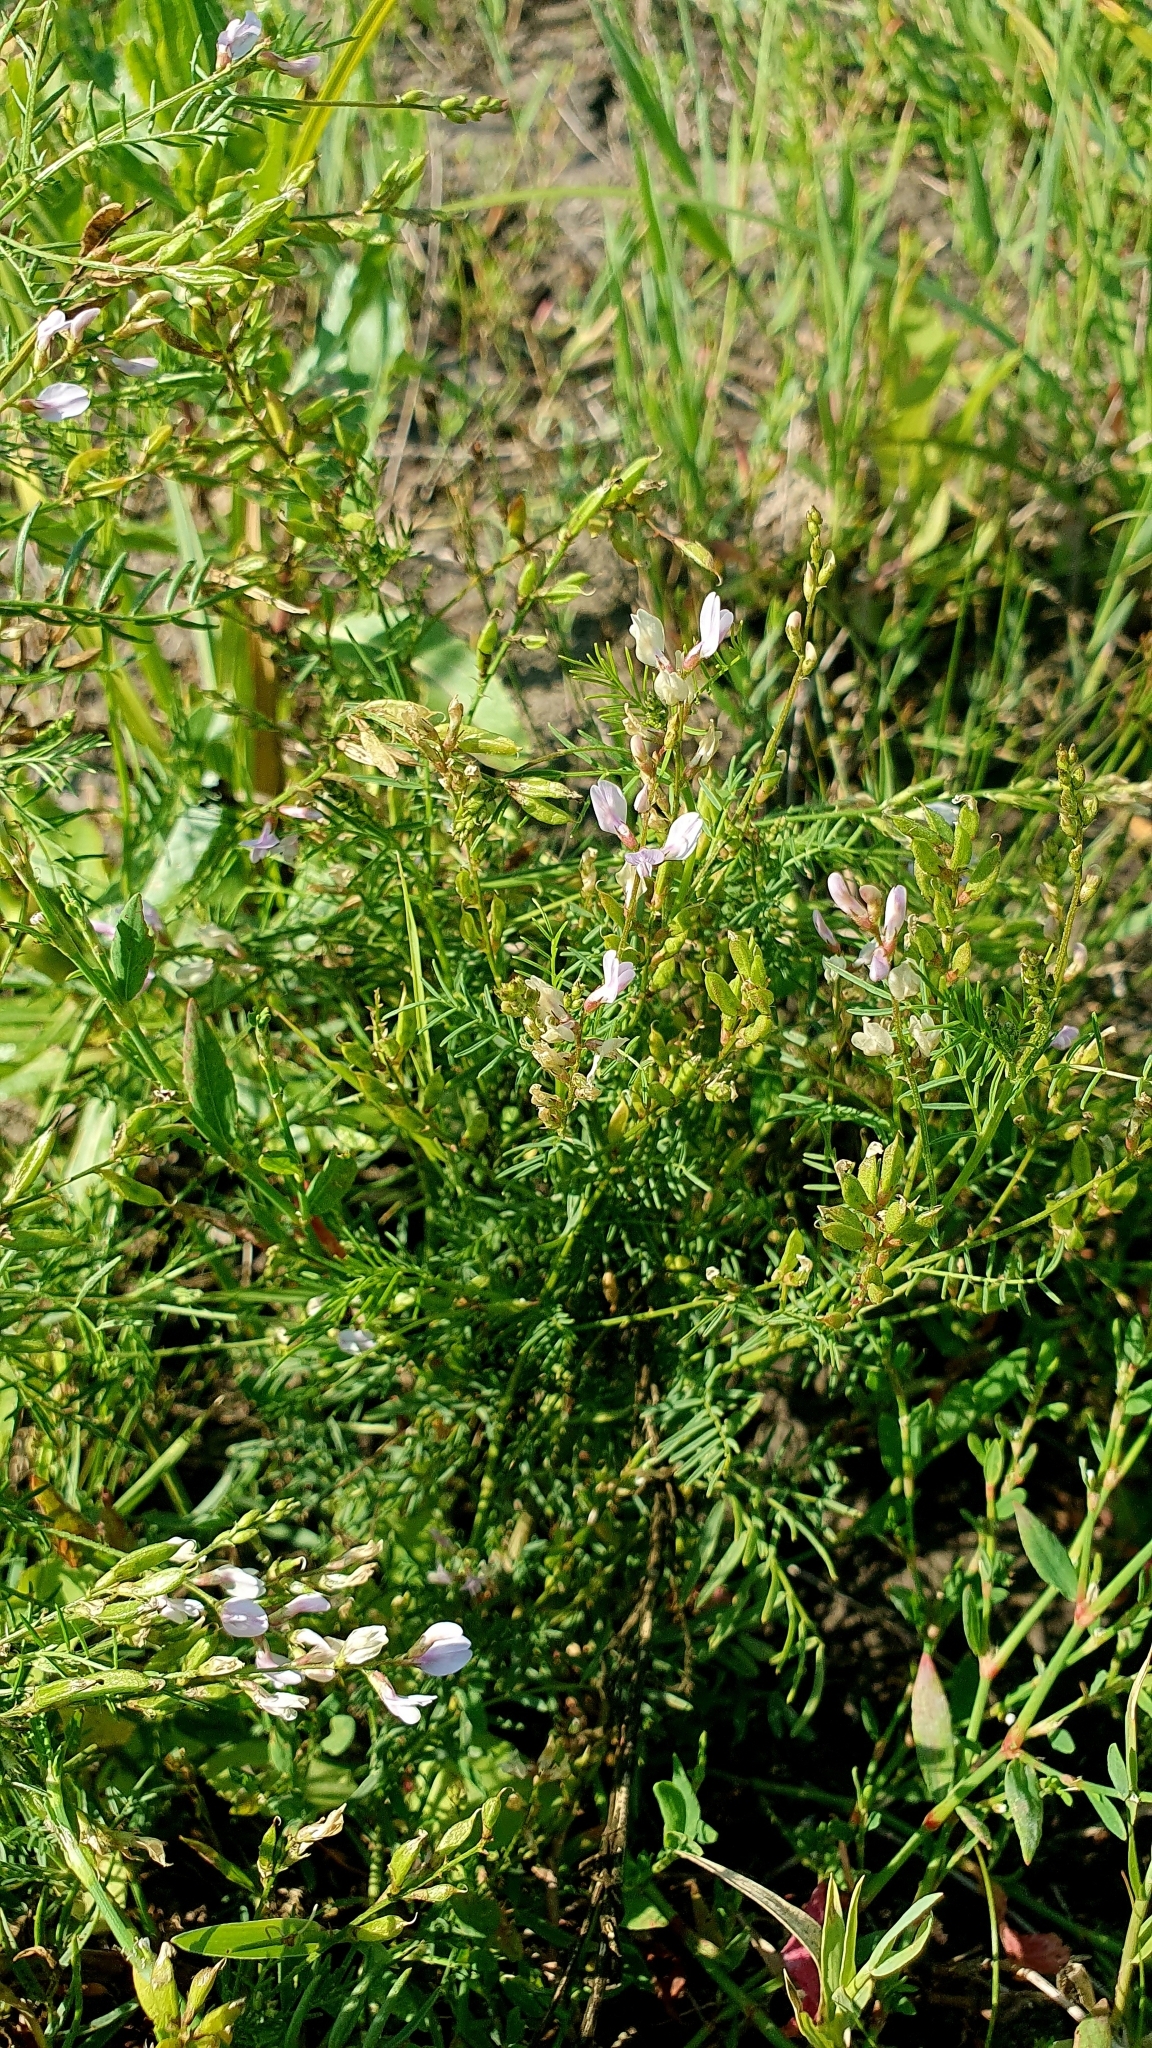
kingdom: Plantae
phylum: Tracheophyta
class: Magnoliopsida
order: Fabales
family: Fabaceae
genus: Astragalus
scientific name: Astragalus sulcatus
